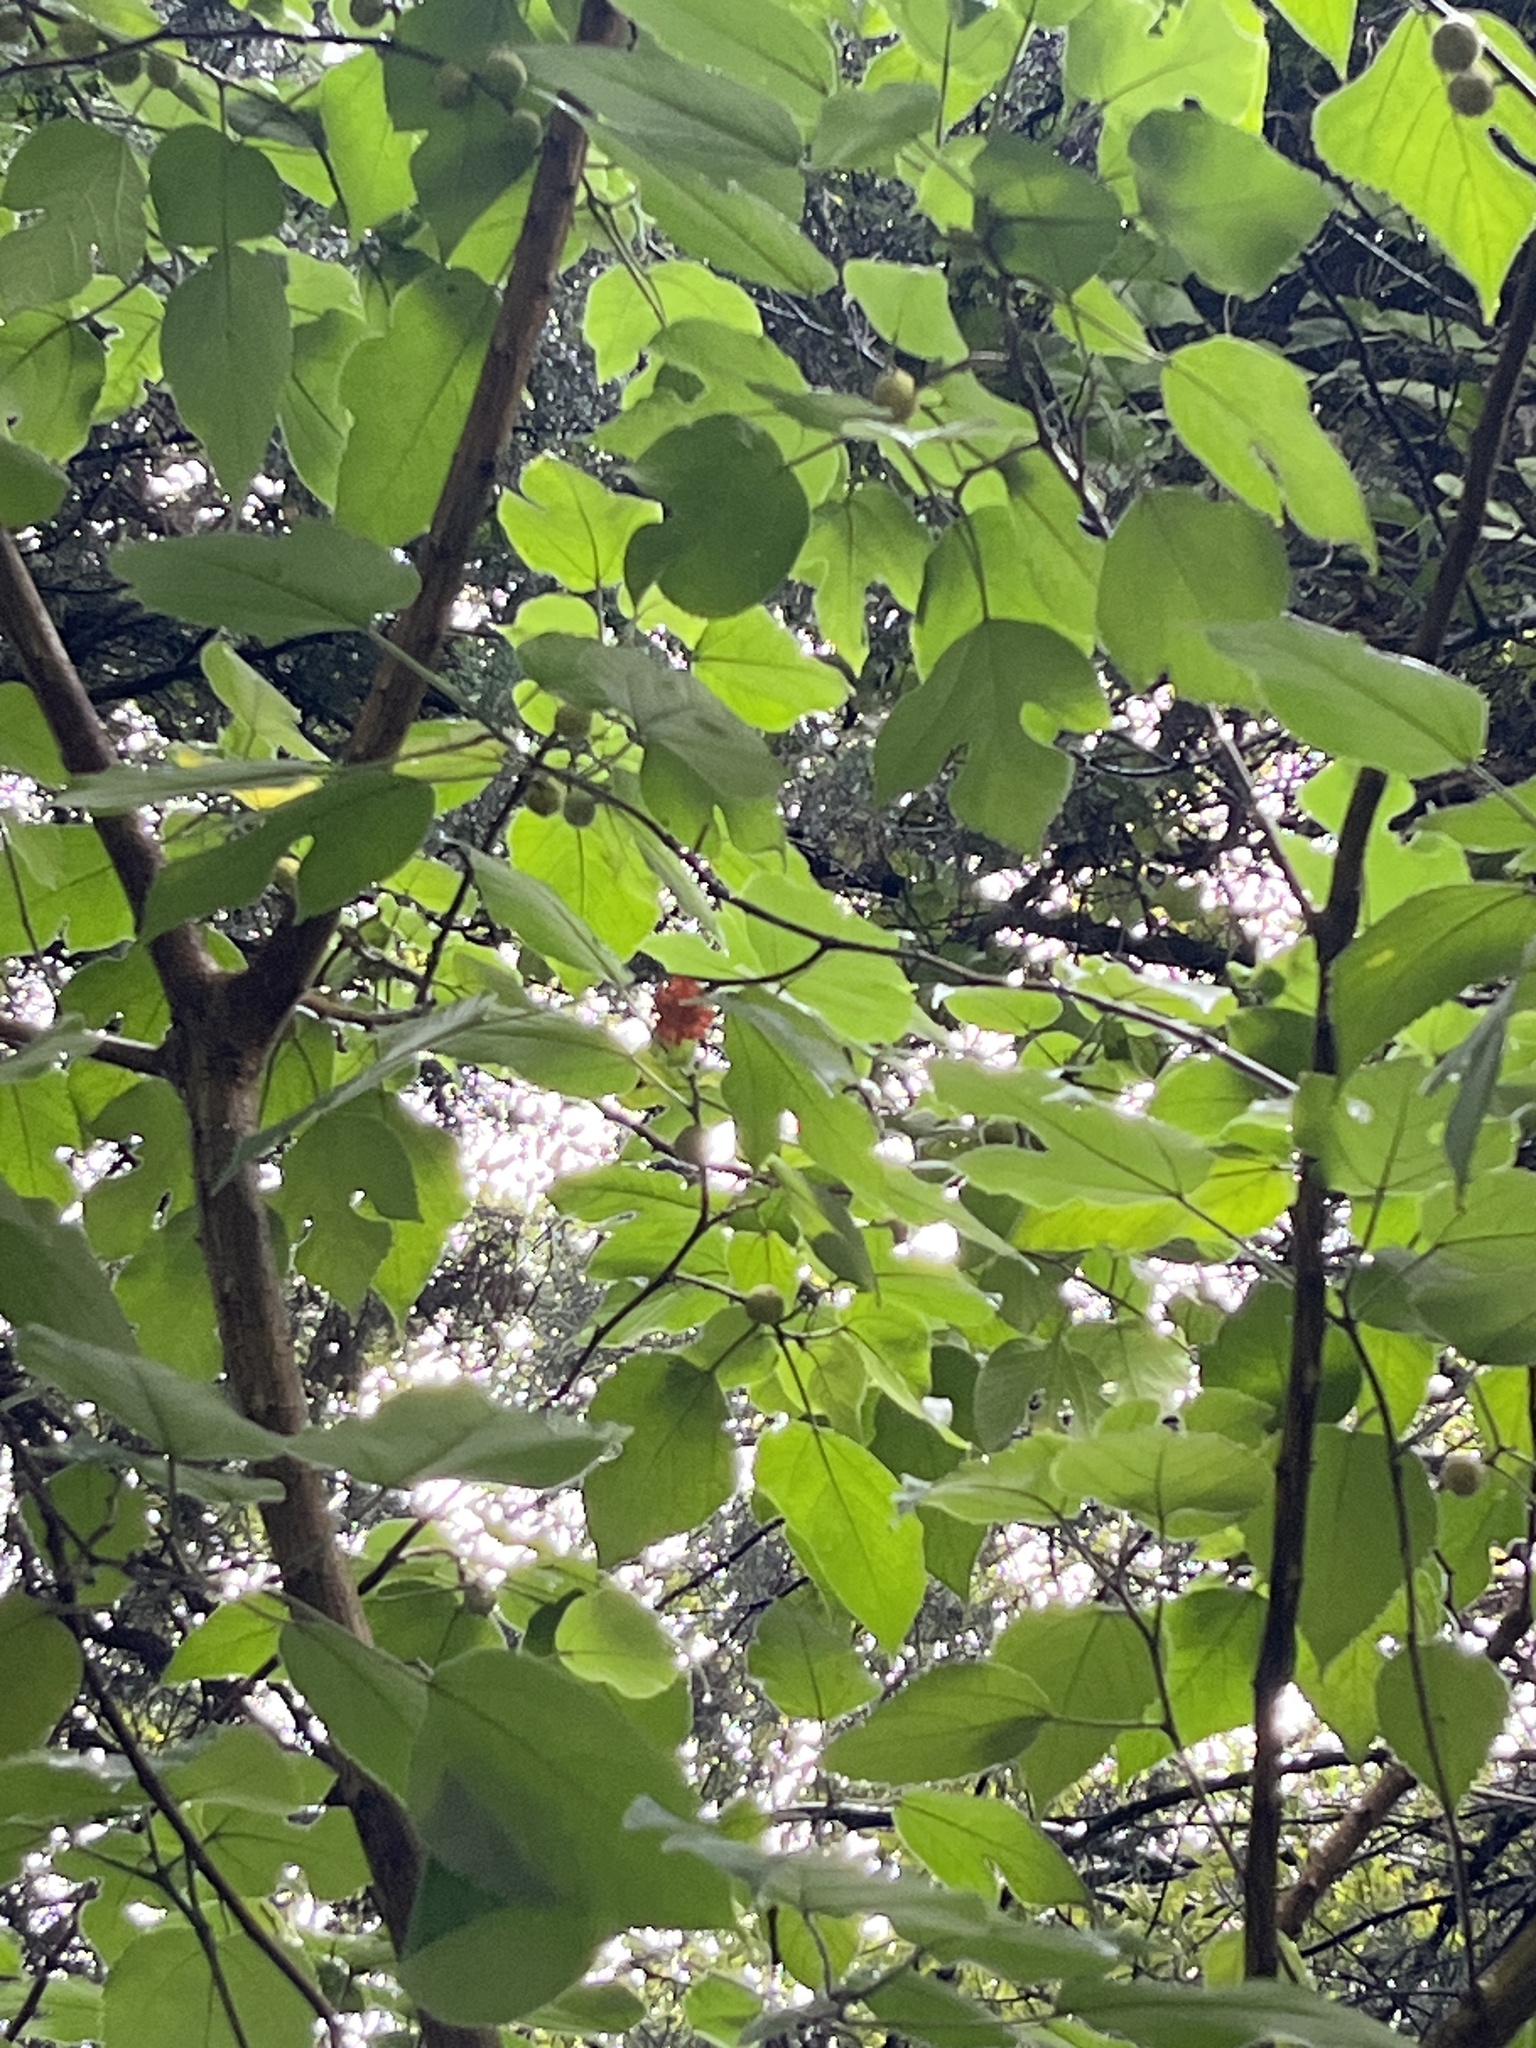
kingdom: Plantae
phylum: Tracheophyta
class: Magnoliopsida
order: Rosales
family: Moraceae
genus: Broussonetia
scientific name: Broussonetia papyrifera
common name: Paper mulberry
